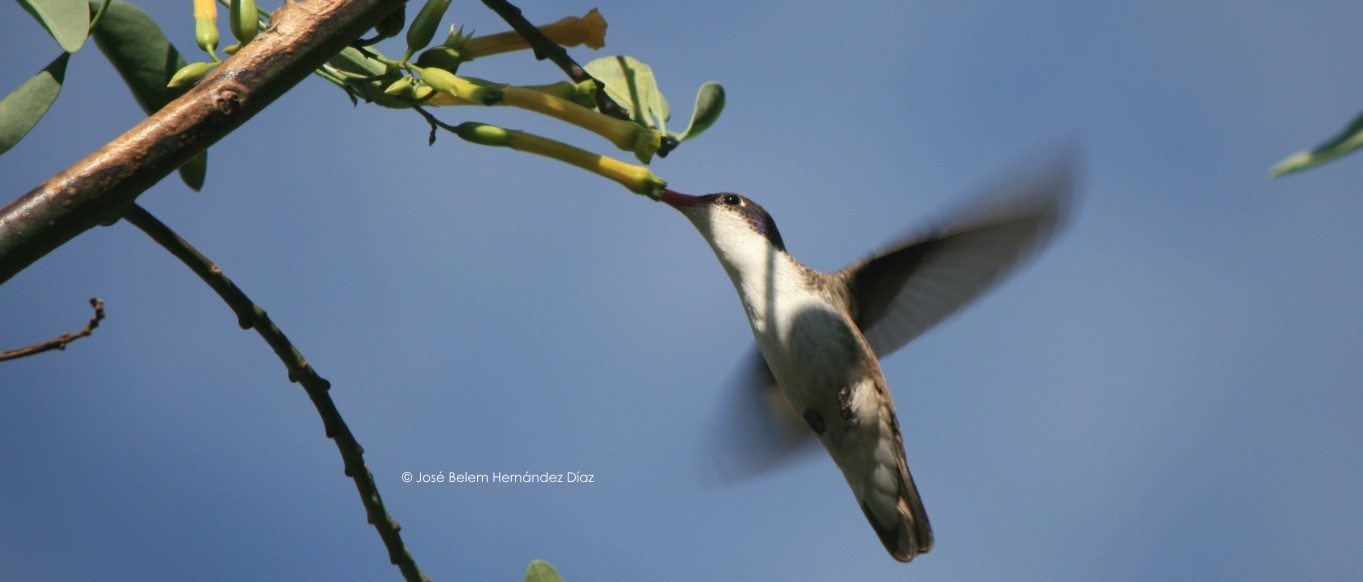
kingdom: Animalia
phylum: Chordata
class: Aves
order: Apodiformes
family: Trochilidae
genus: Leucolia
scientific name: Leucolia violiceps
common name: Violet-crowned hummingbird
